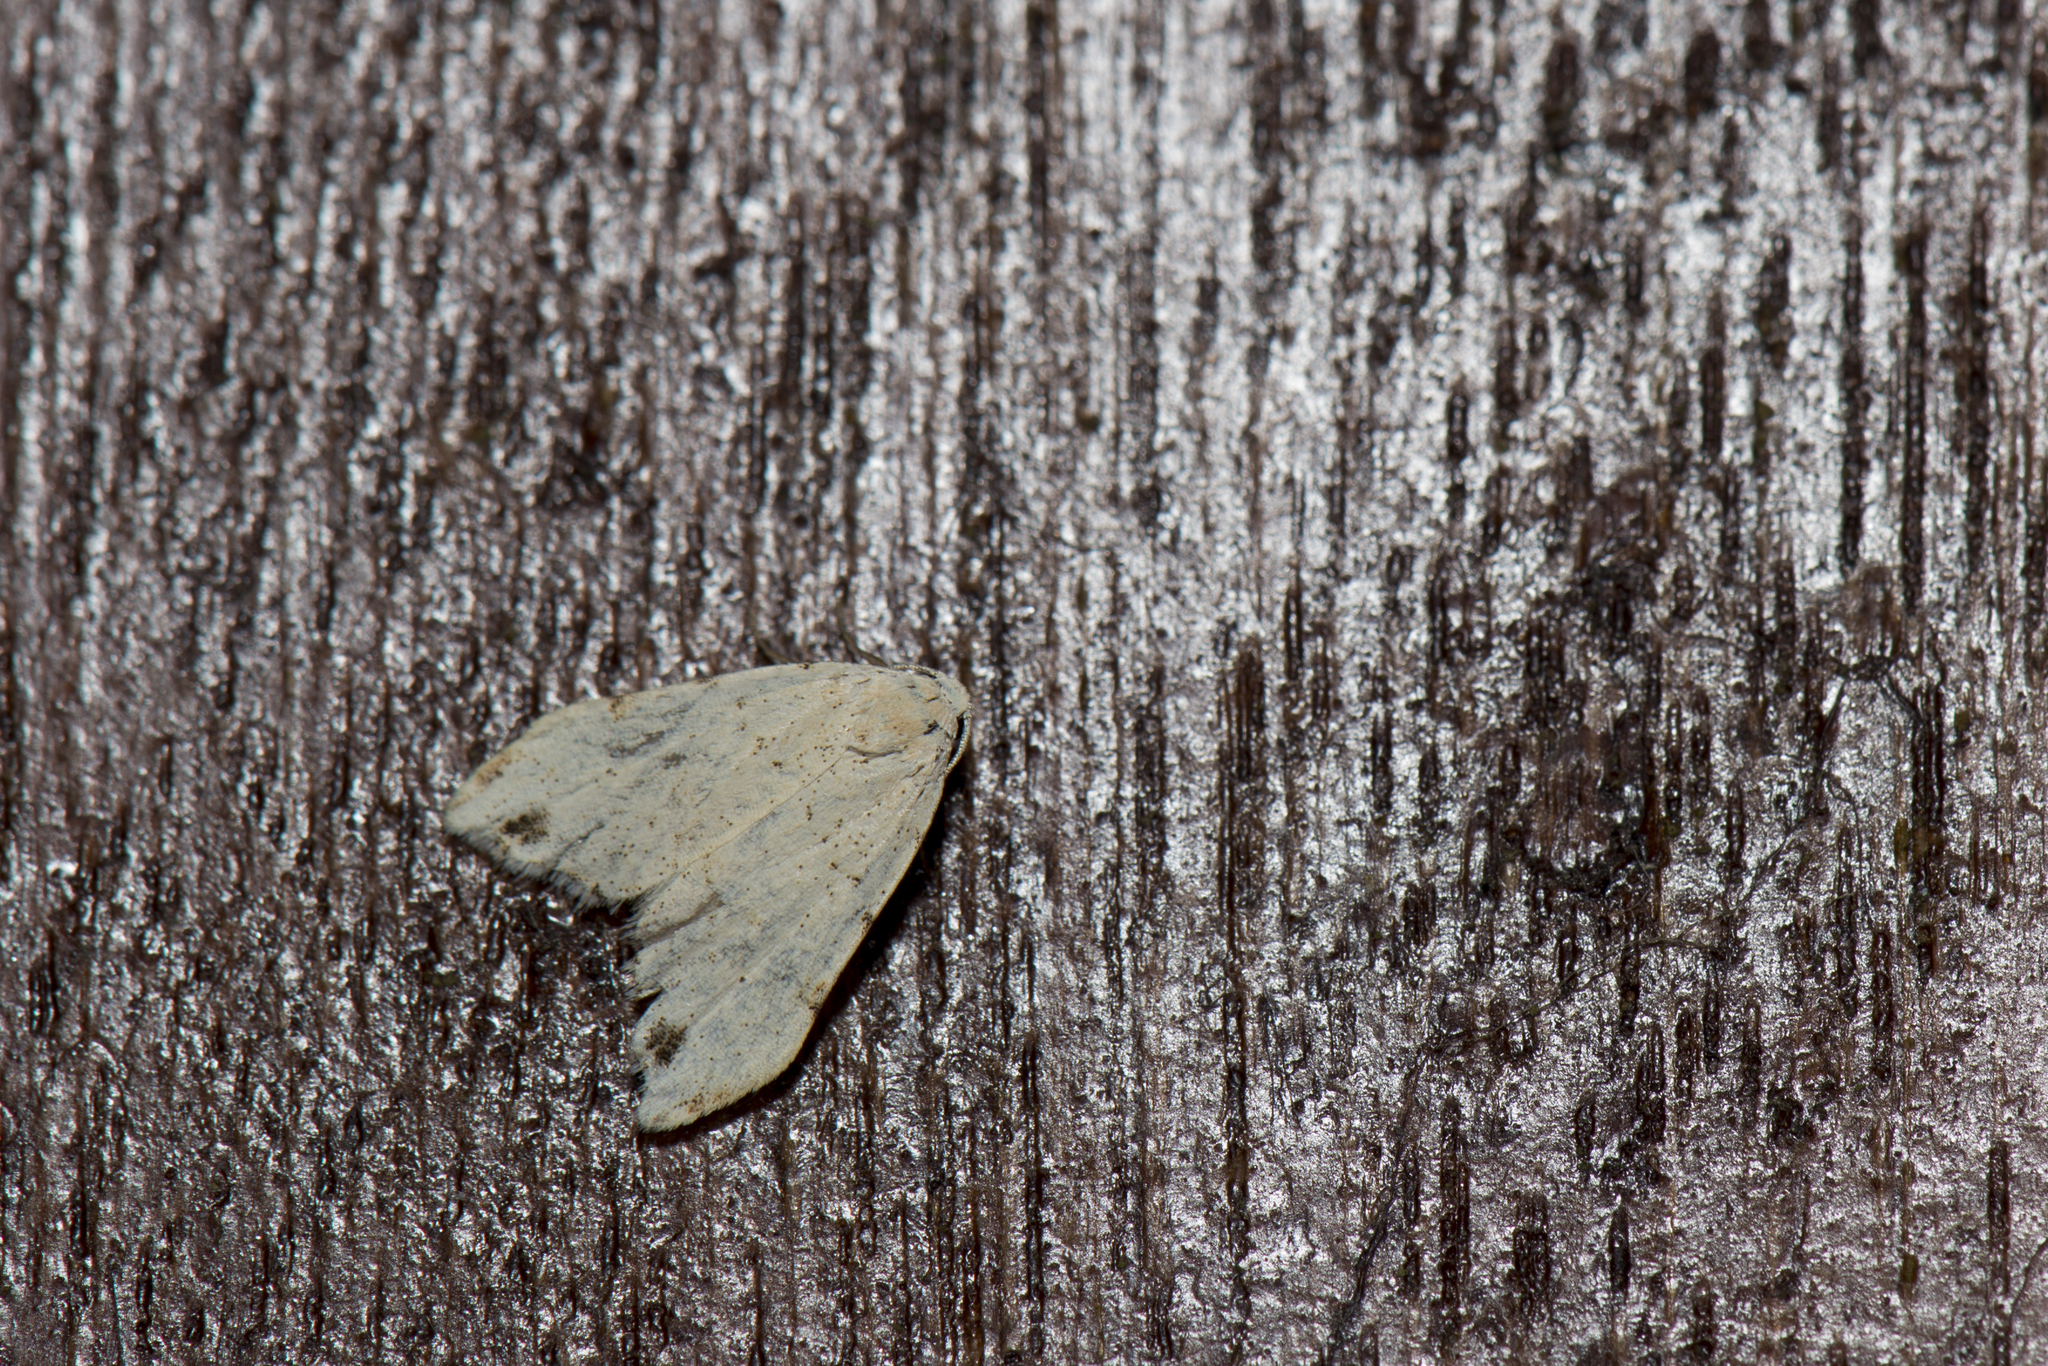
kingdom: Animalia
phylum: Arthropoda
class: Insecta
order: Lepidoptera
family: Erebidae
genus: Oxacme
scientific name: Oxacme cretacea
